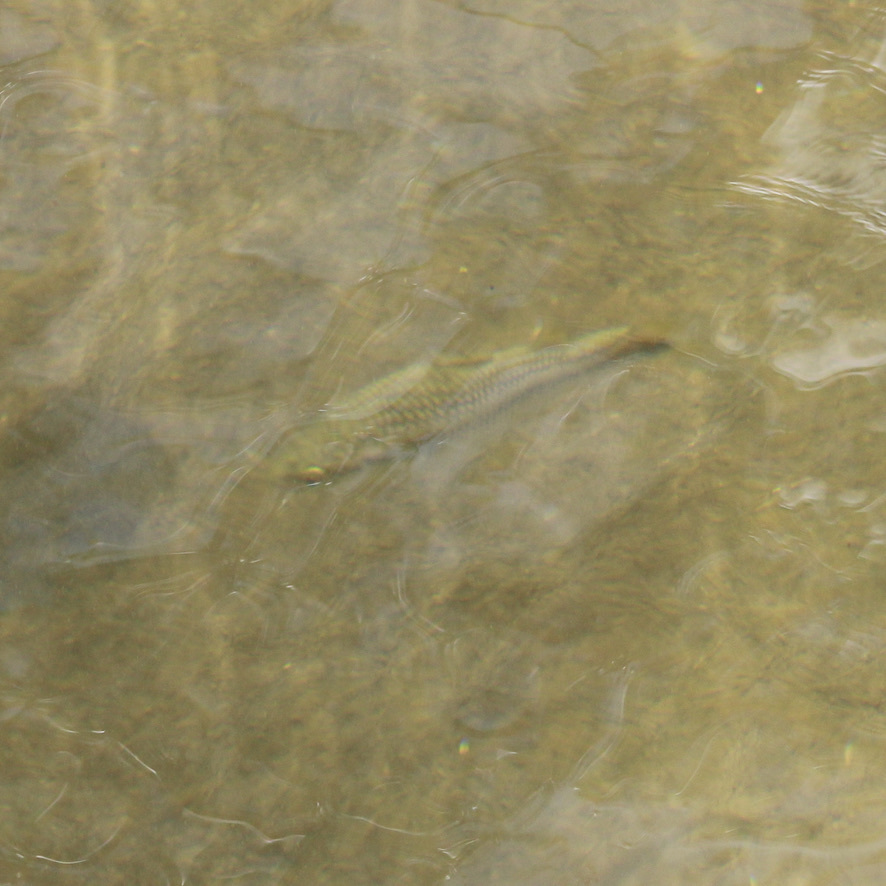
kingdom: Animalia
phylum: Chordata
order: Mugiliformes
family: Mugilidae
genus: Dajaus
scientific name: Dajaus monticola
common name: Mountain mullet
